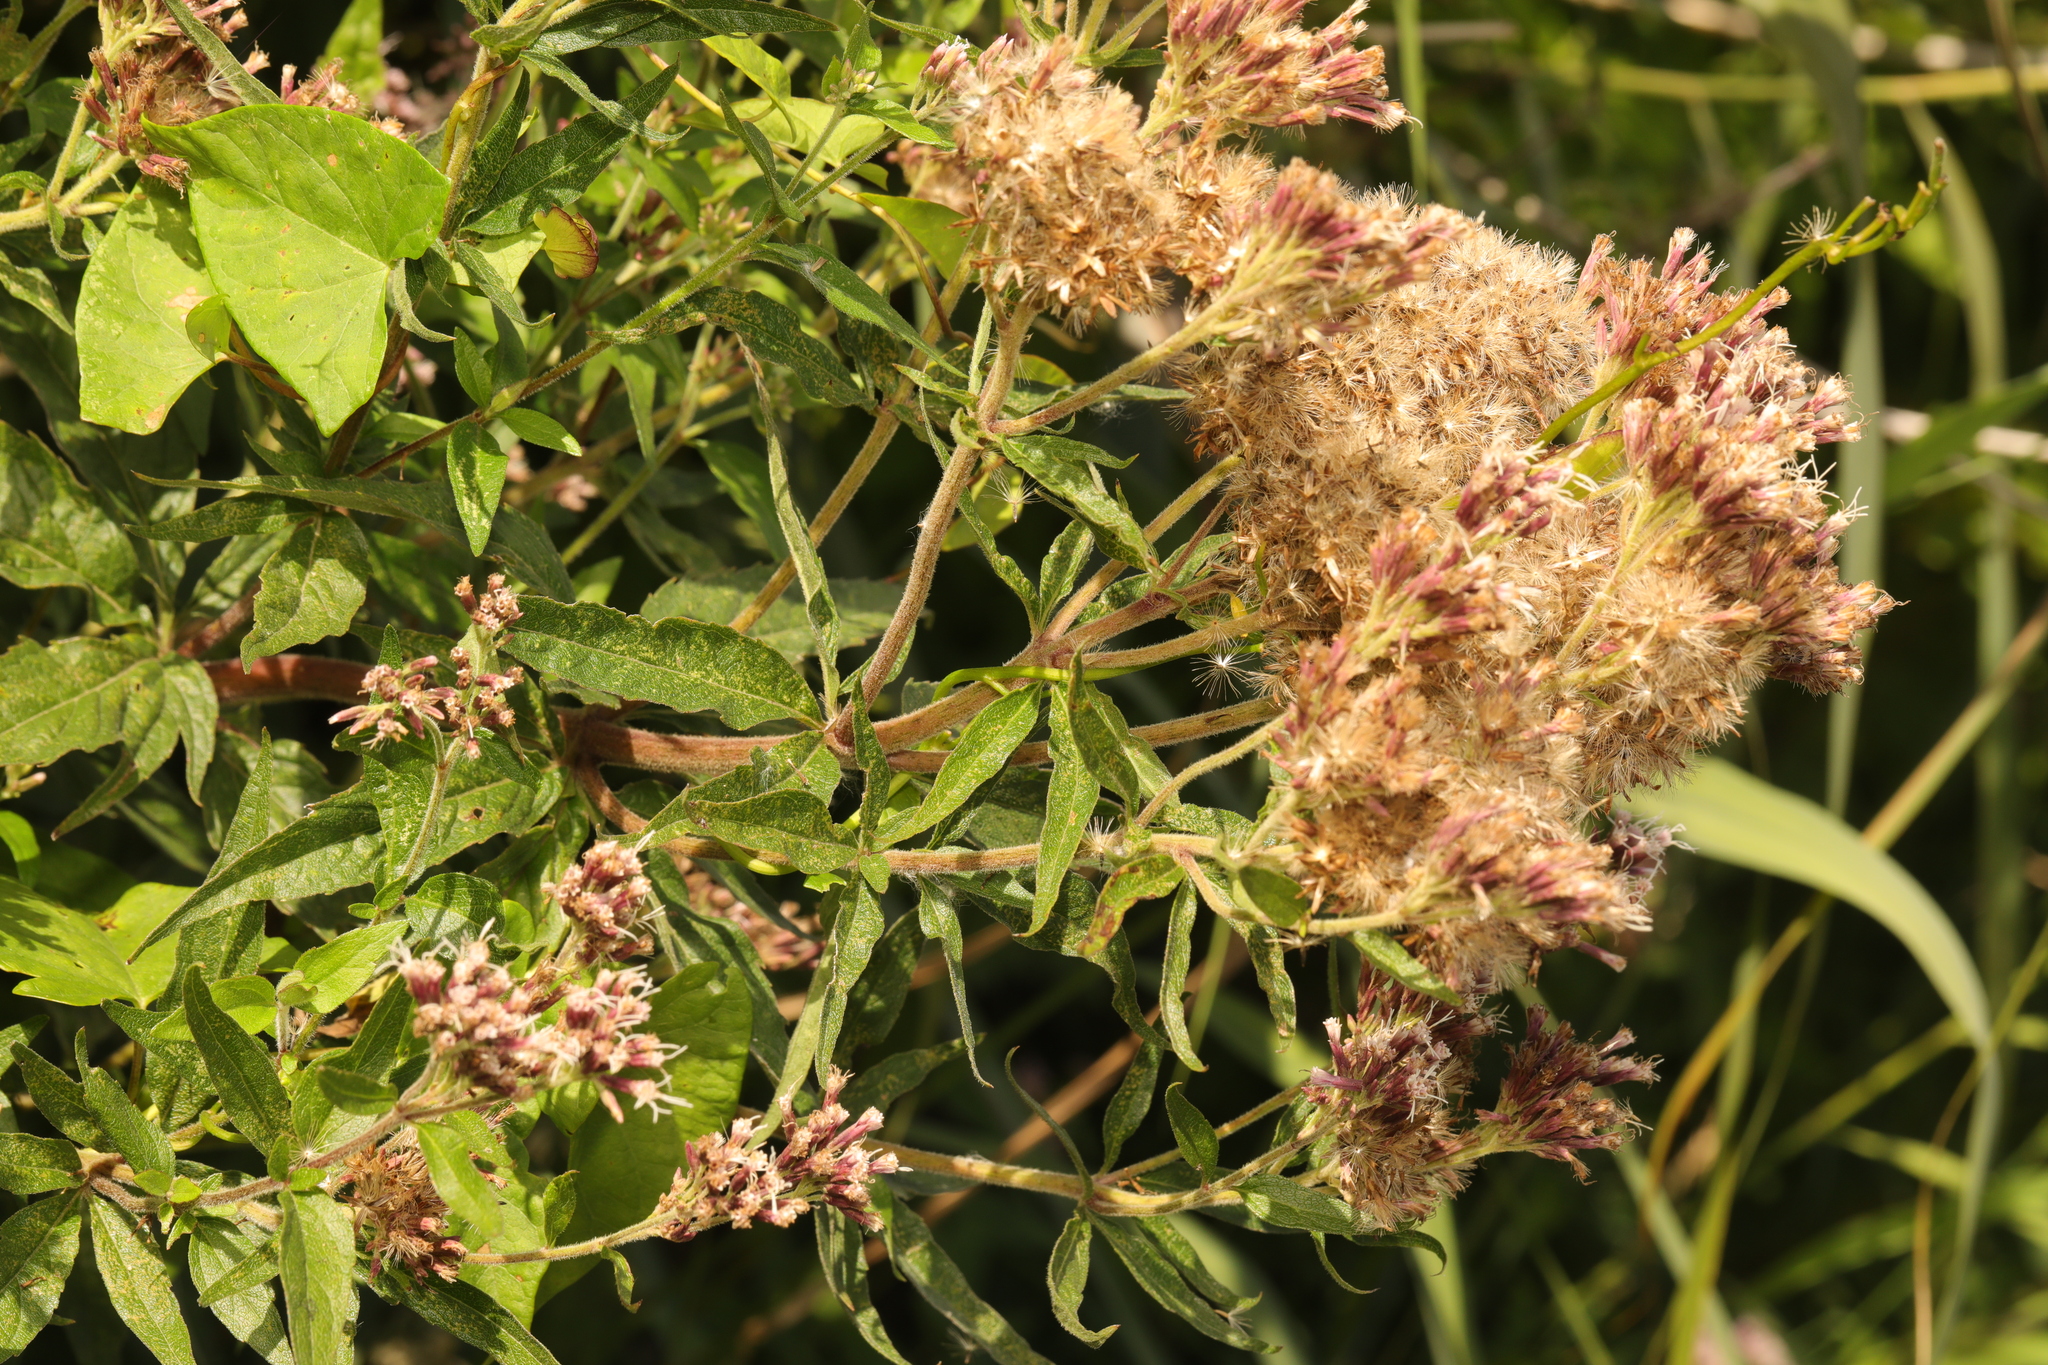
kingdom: Plantae
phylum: Tracheophyta
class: Magnoliopsida
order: Asterales
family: Asteraceae
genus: Eupatorium
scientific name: Eupatorium cannabinum
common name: Hemp-agrimony
